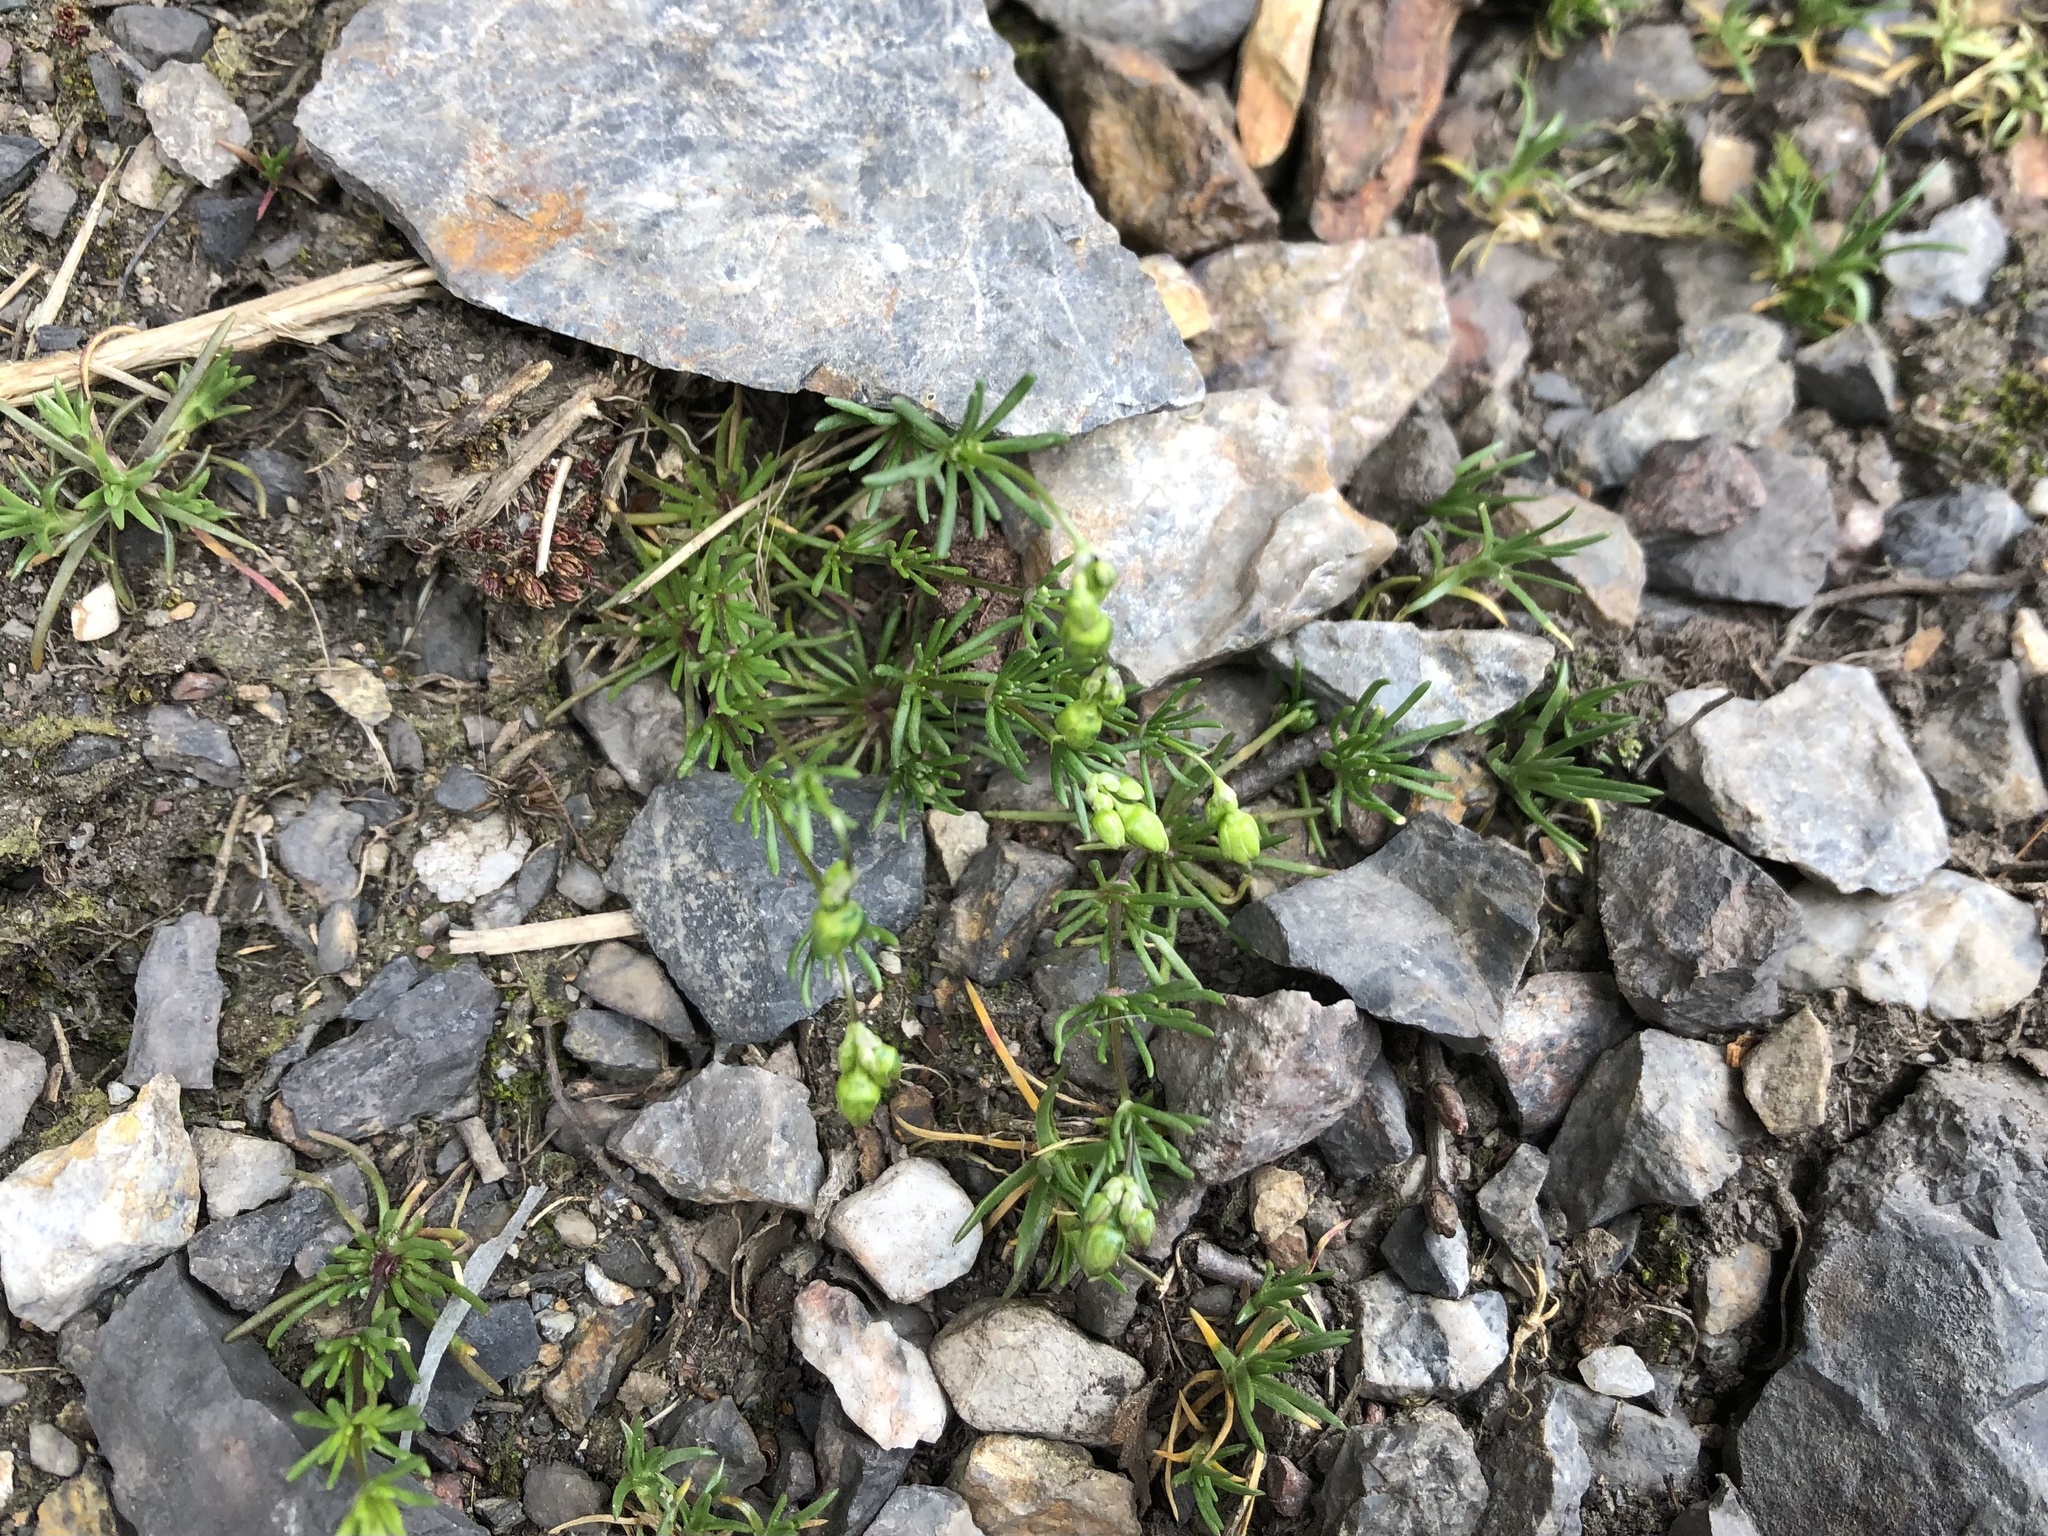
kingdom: Plantae
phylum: Tracheophyta
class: Magnoliopsida
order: Caryophyllales
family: Caryophyllaceae
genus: Spergula
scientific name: Spergula morisonii
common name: Pearlwort spurrey
